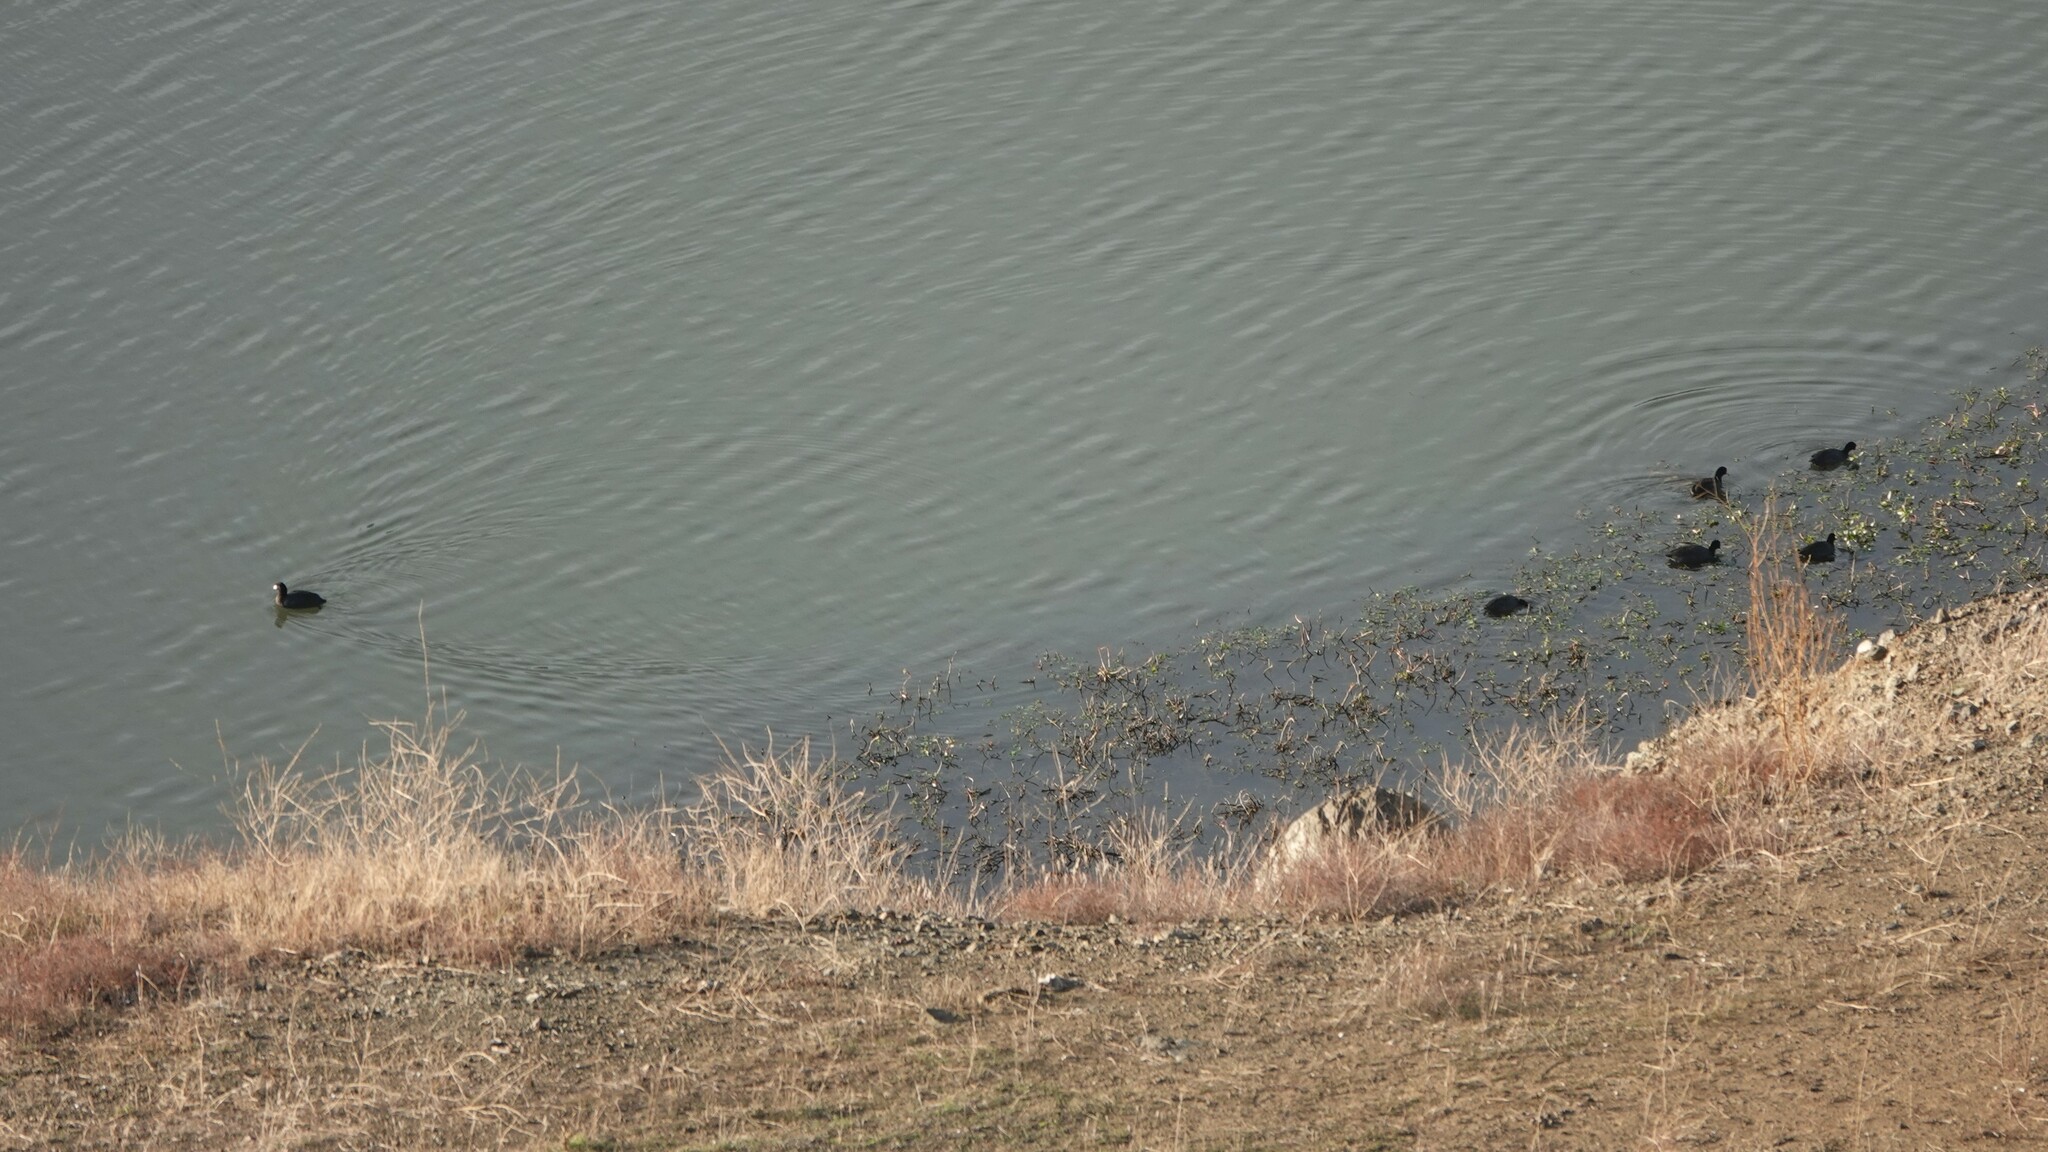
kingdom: Animalia
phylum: Chordata
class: Aves
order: Gruiformes
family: Rallidae
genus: Fulica
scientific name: Fulica americana
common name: American coot
